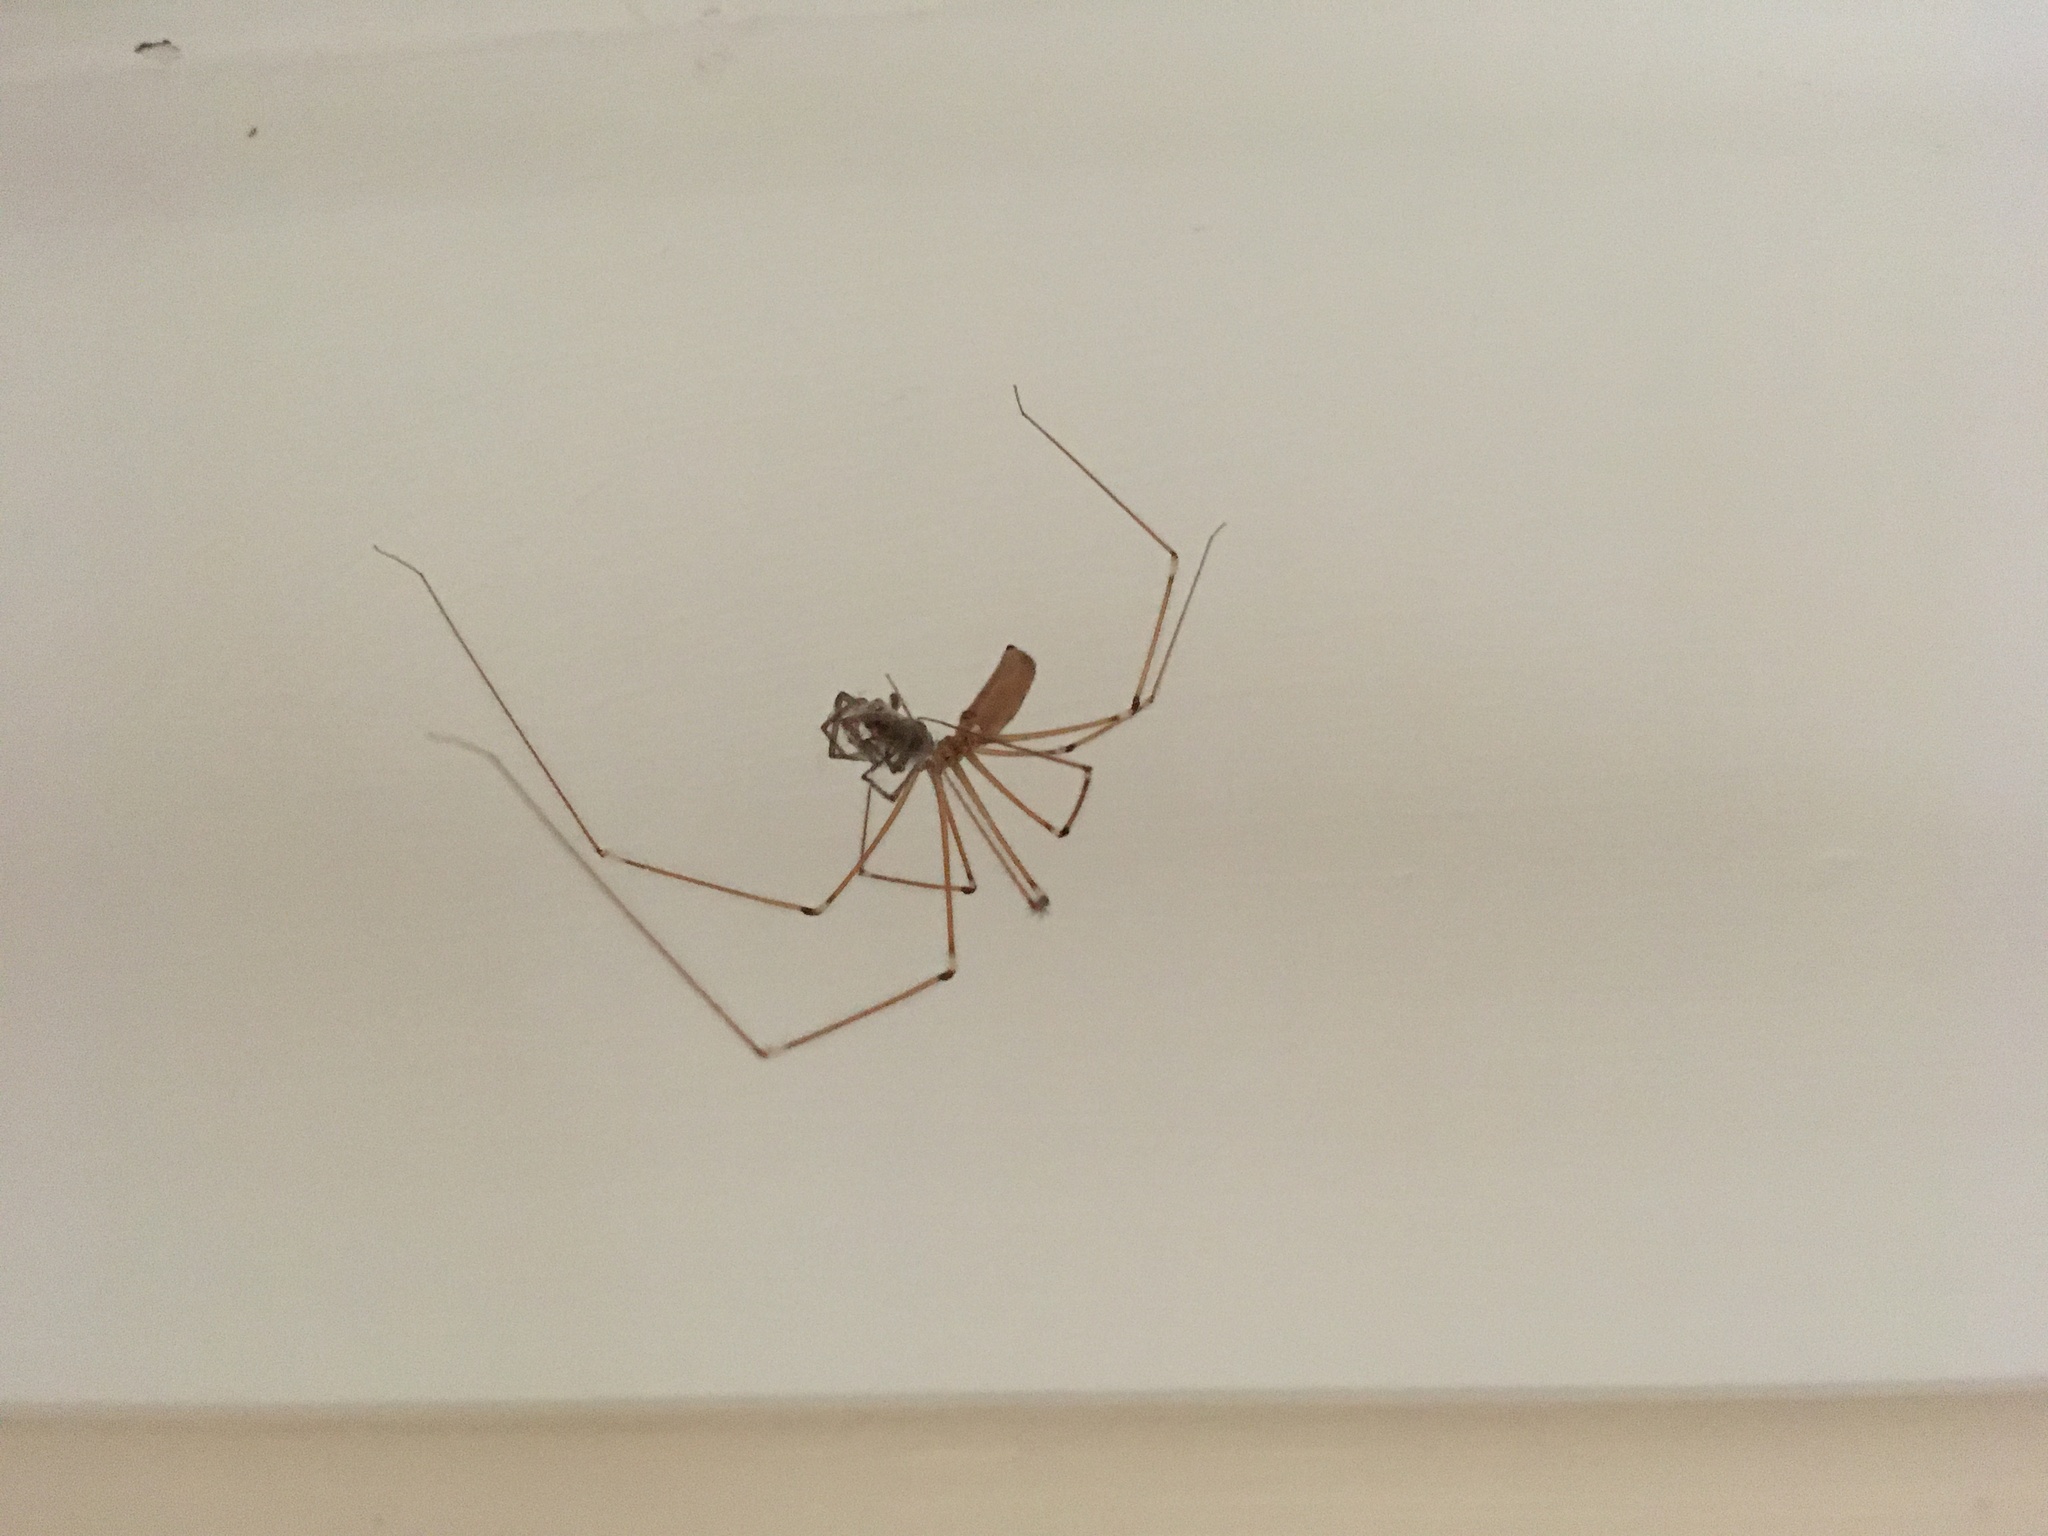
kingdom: Animalia
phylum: Arthropoda
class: Arachnida
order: Araneae
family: Pholcidae
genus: Pholcus
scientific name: Pholcus phalangioides
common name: Longbodied cellar spider
